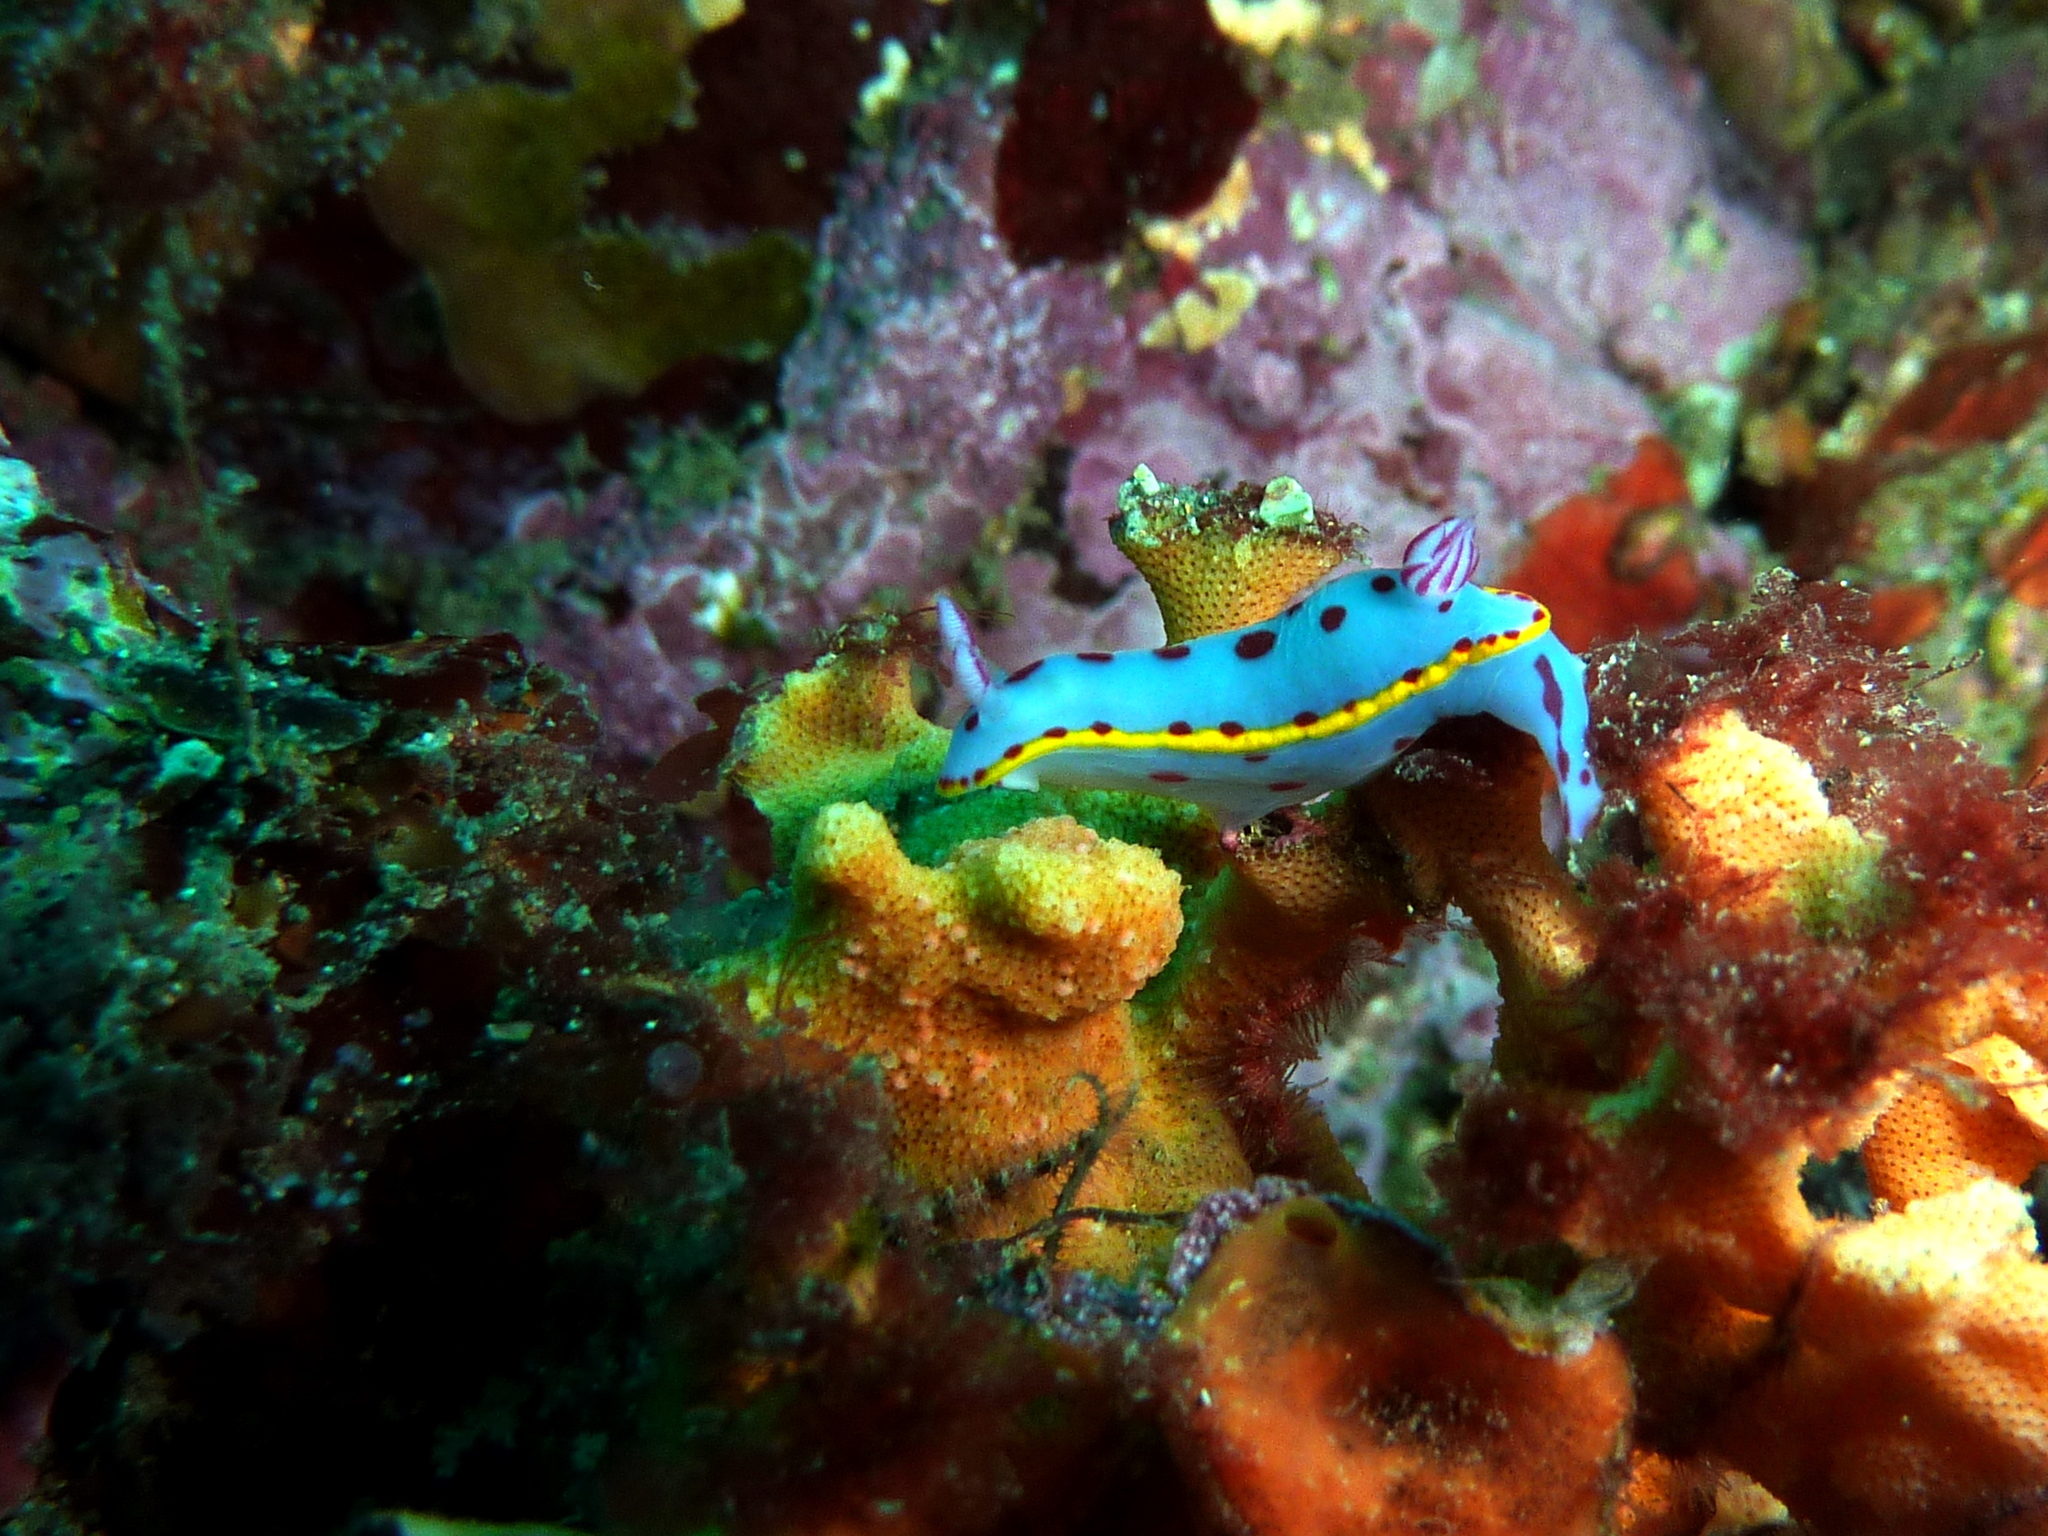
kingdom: Animalia
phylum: Mollusca
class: Gastropoda
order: Nudibranchia
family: Chromodorididae
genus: Hypselodoris
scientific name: Hypselodoris bennetti
